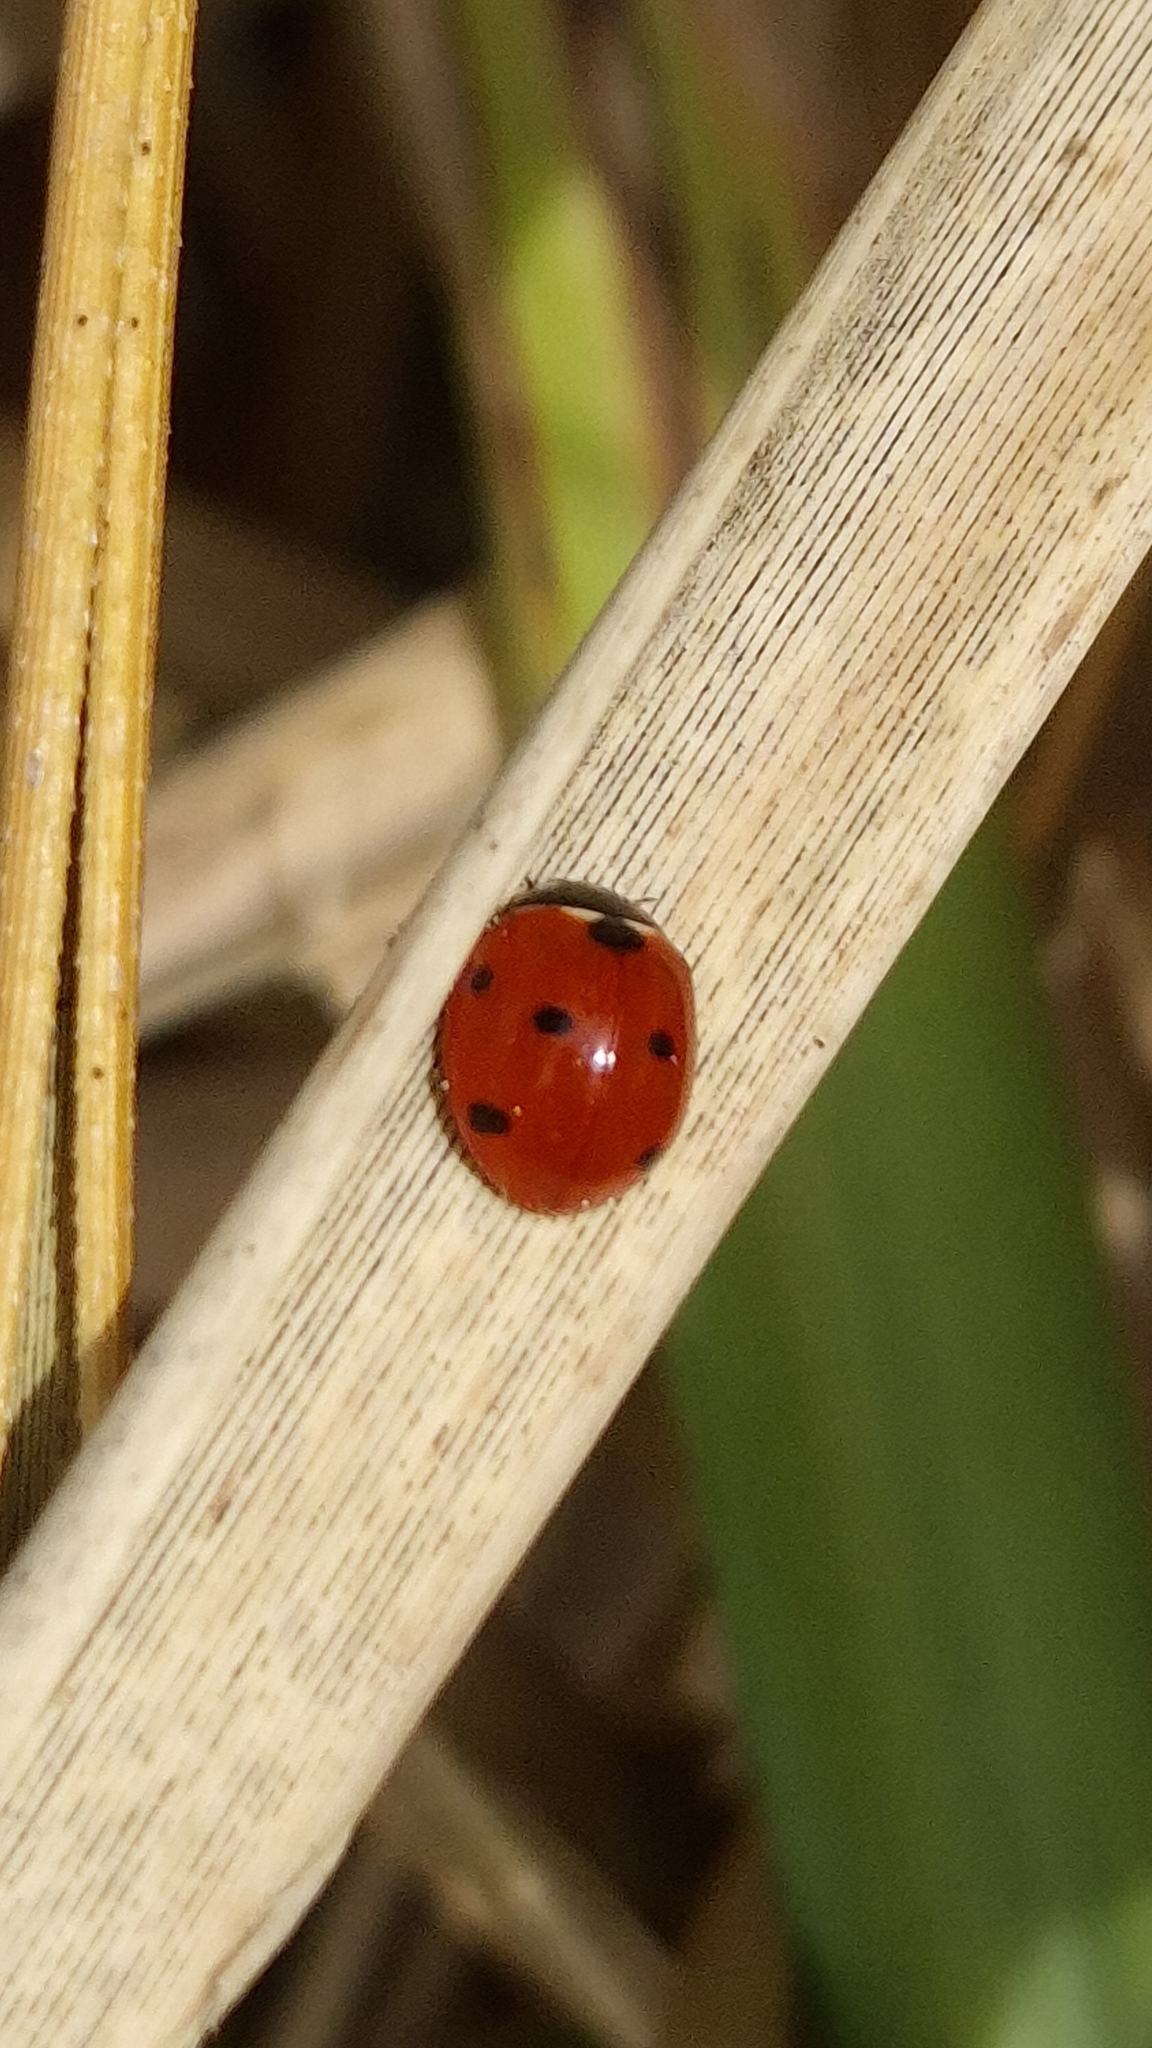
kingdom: Animalia
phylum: Arthropoda
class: Insecta
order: Coleoptera
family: Coccinellidae
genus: Coccinella
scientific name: Coccinella septempunctata
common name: Sevenspotted lady beetle
